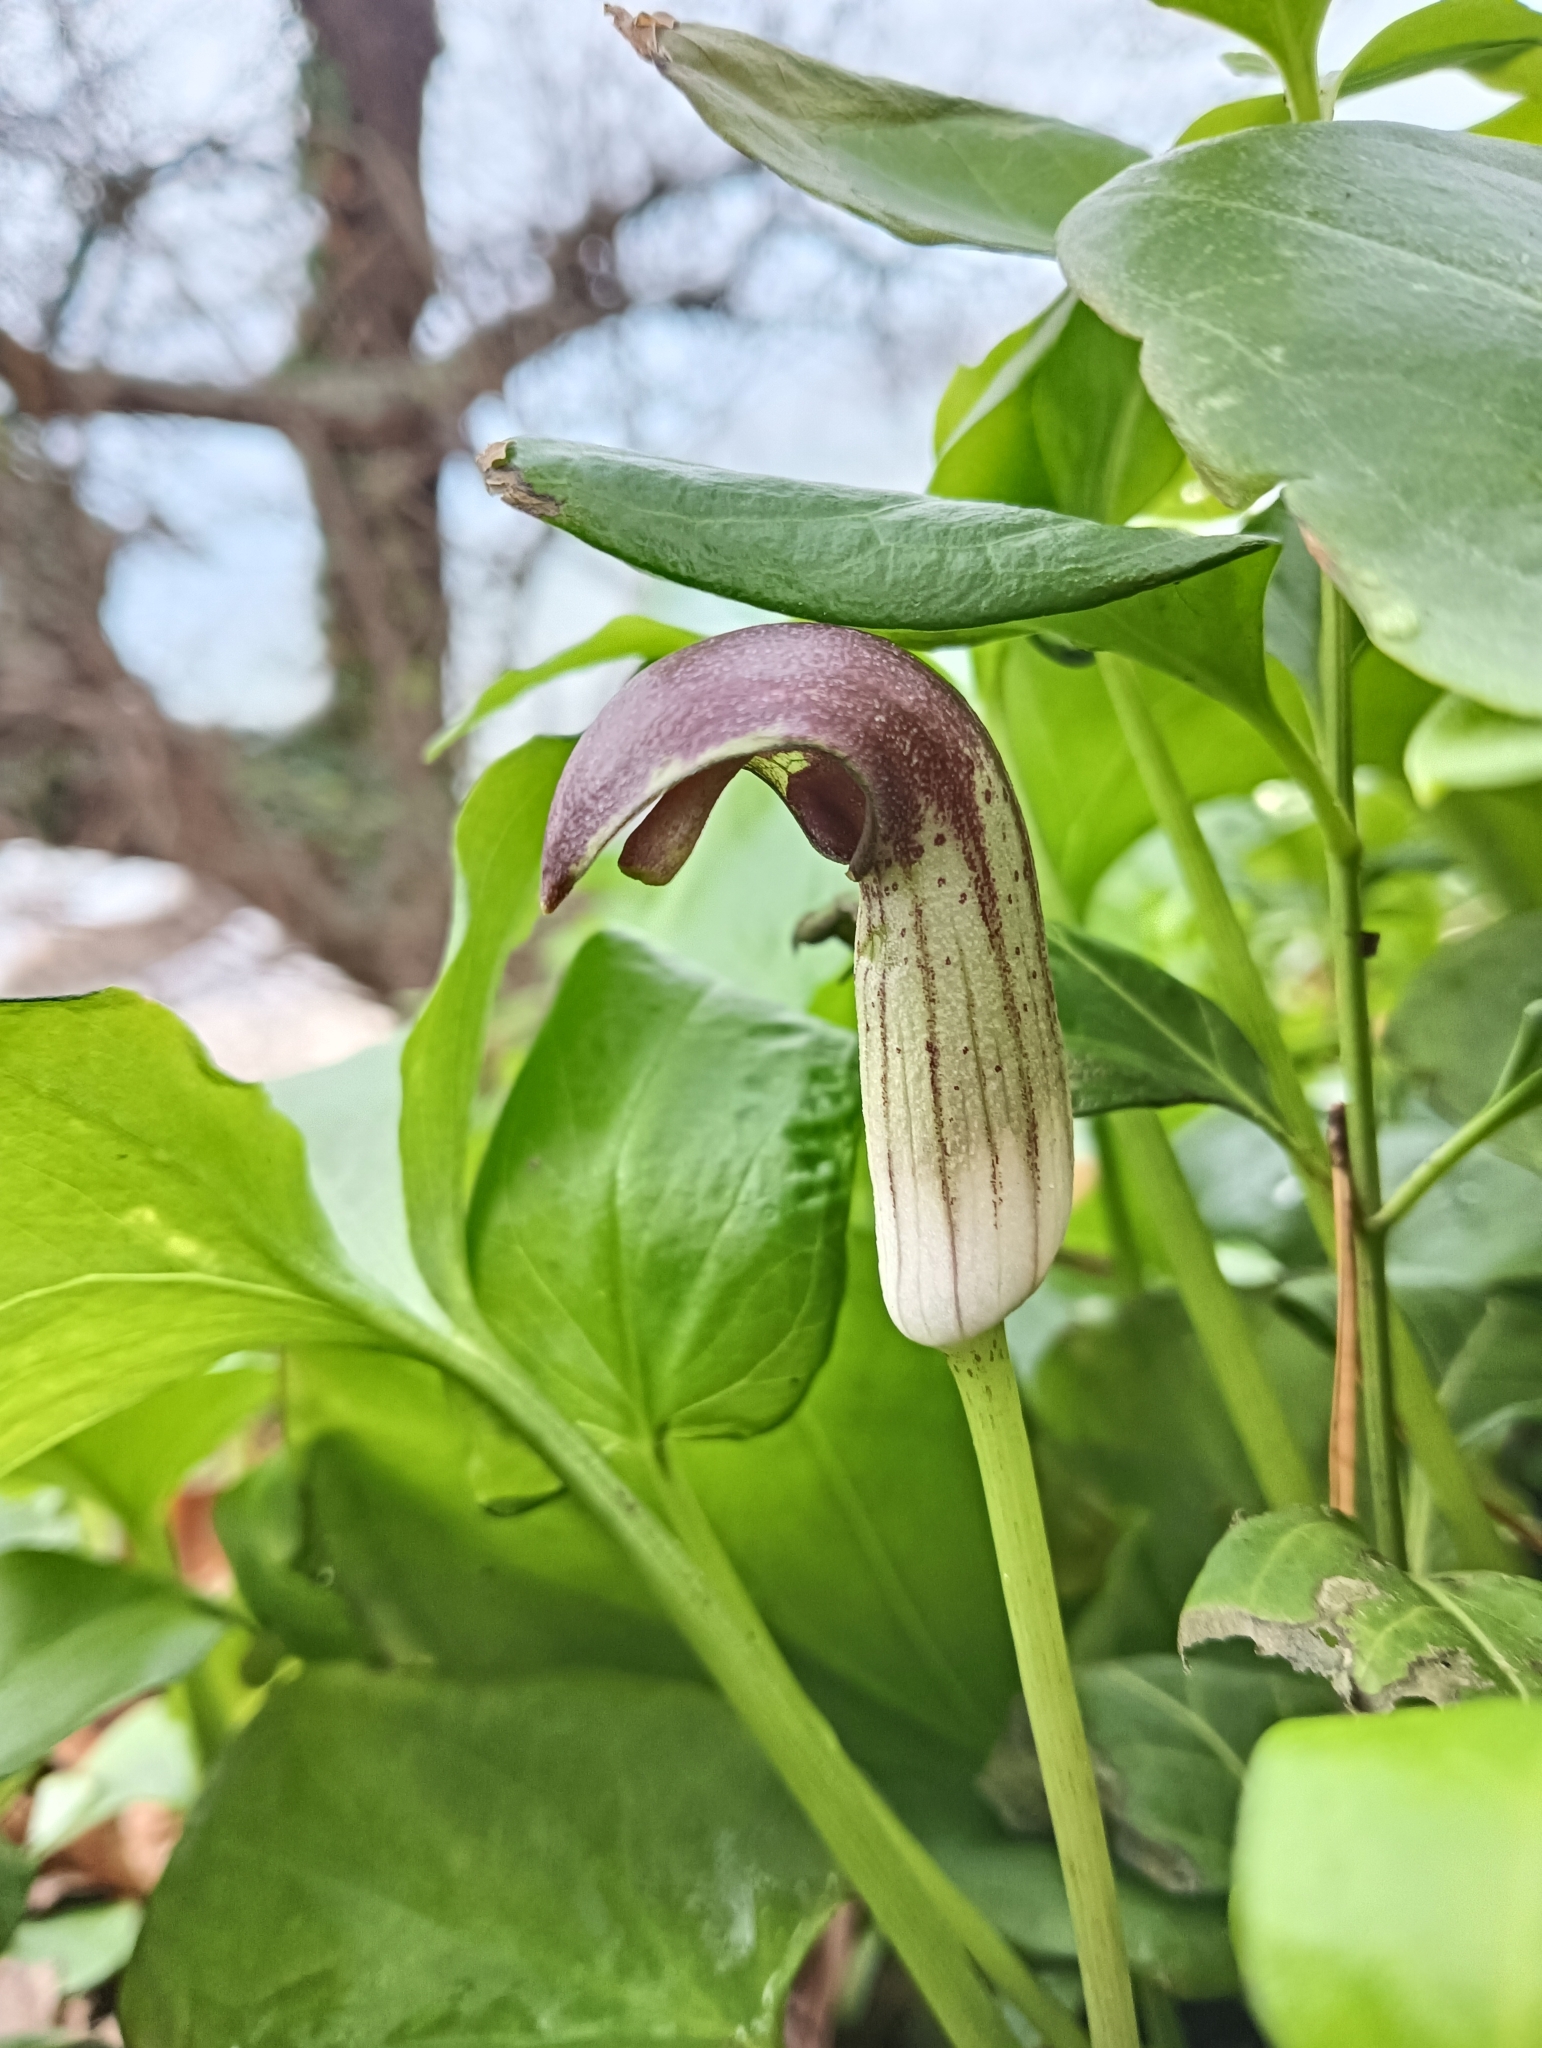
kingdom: Plantae
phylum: Tracheophyta
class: Liliopsida
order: Alismatales
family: Araceae
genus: Arisarum
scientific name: Arisarum simorrhinum
